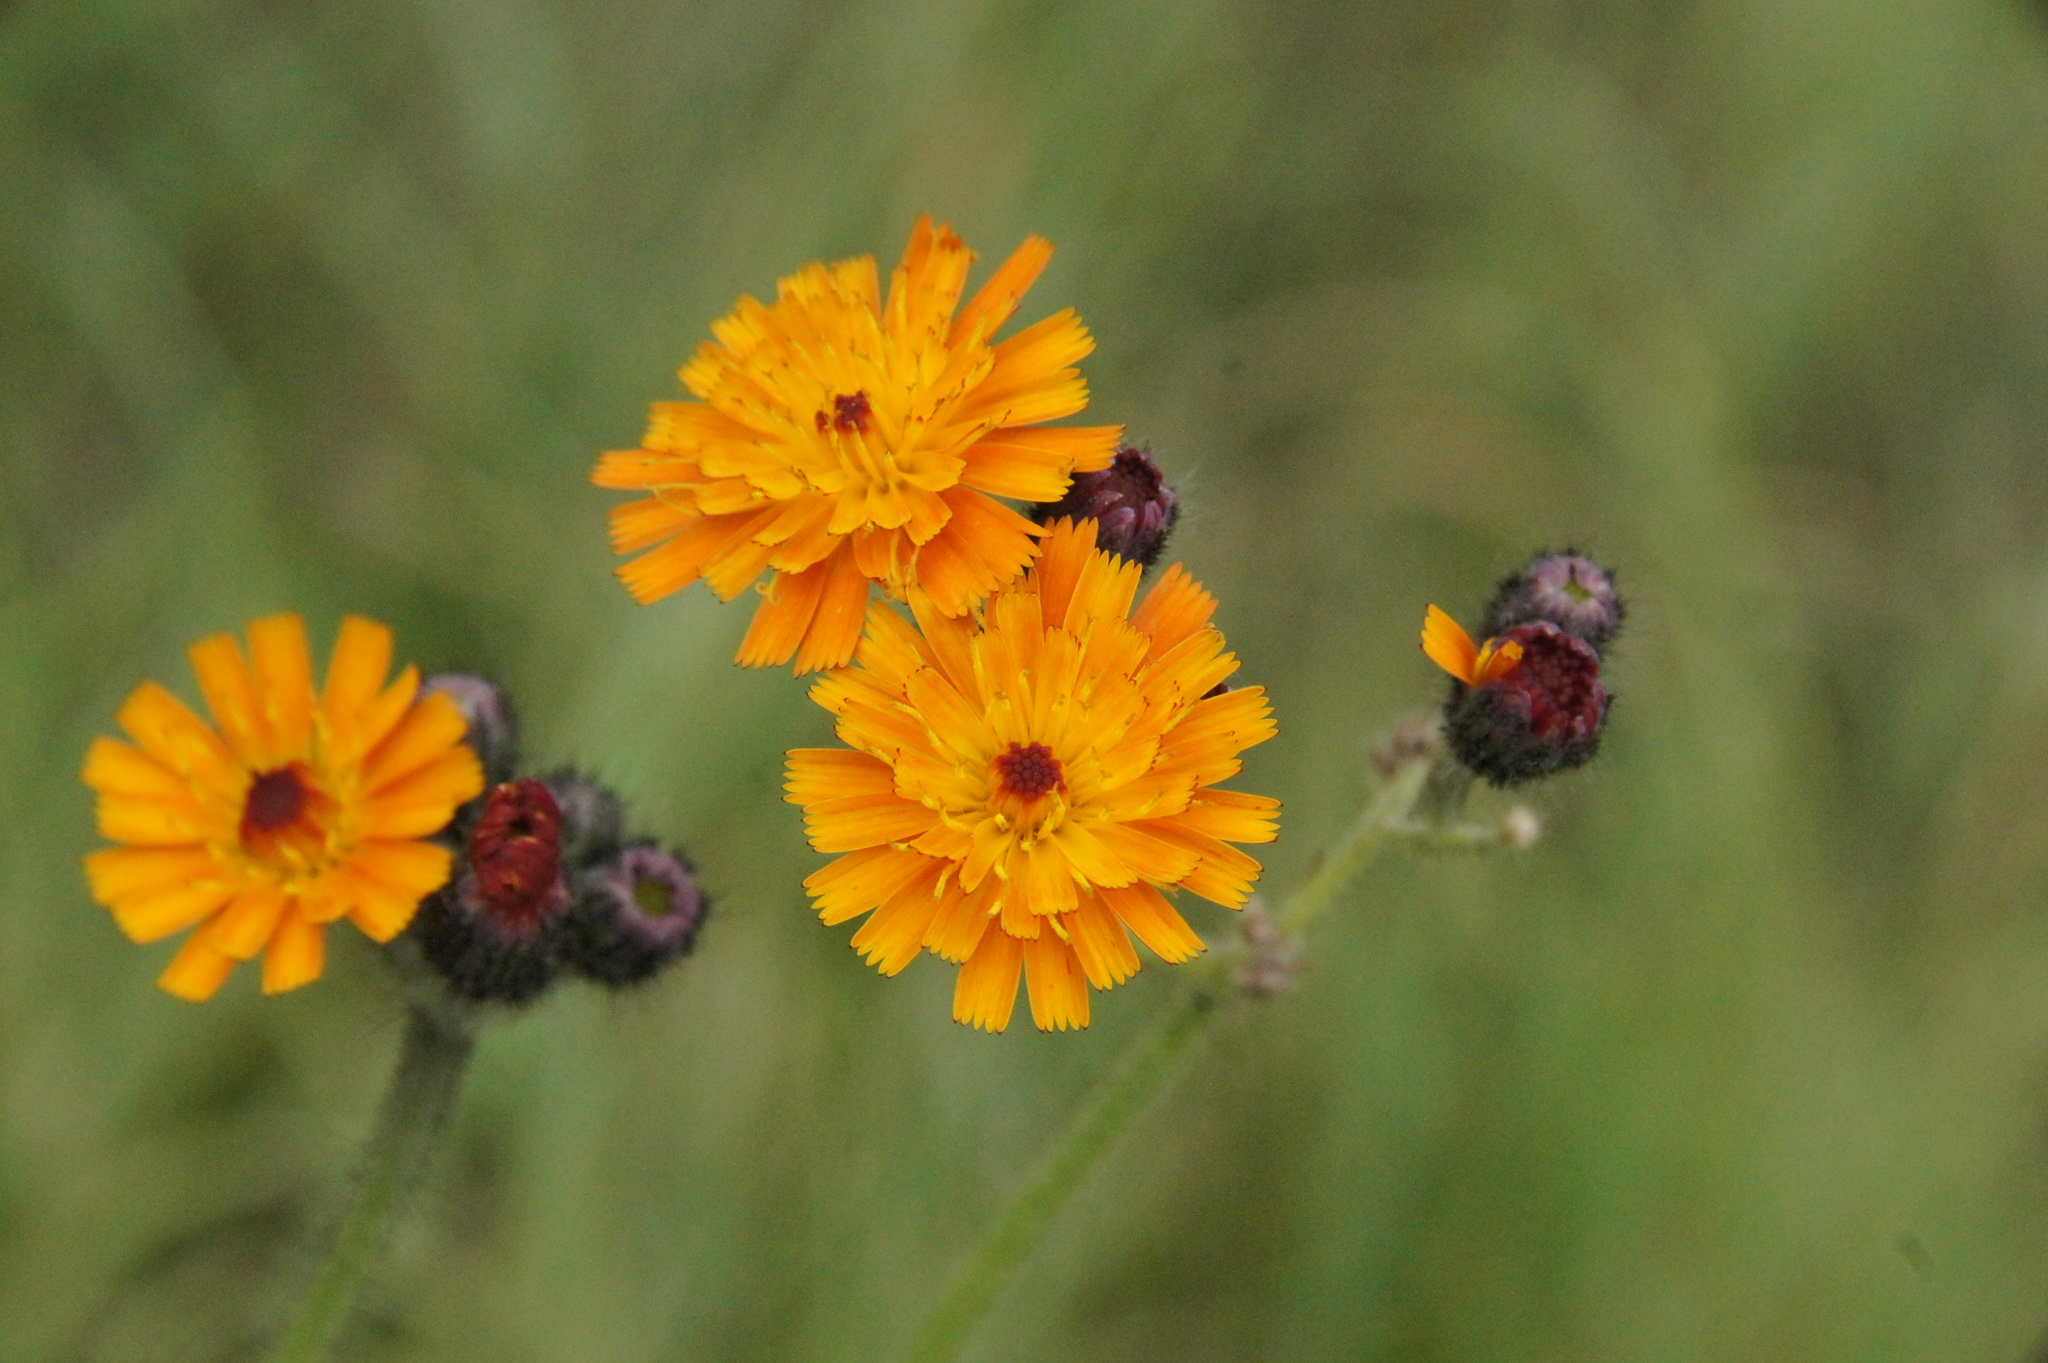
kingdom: Plantae
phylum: Tracheophyta
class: Magnoliopsida
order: Asterales
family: Asteraceae
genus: Pilosella
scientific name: Pilosella aurantiaca
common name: Fox-and-cubs
